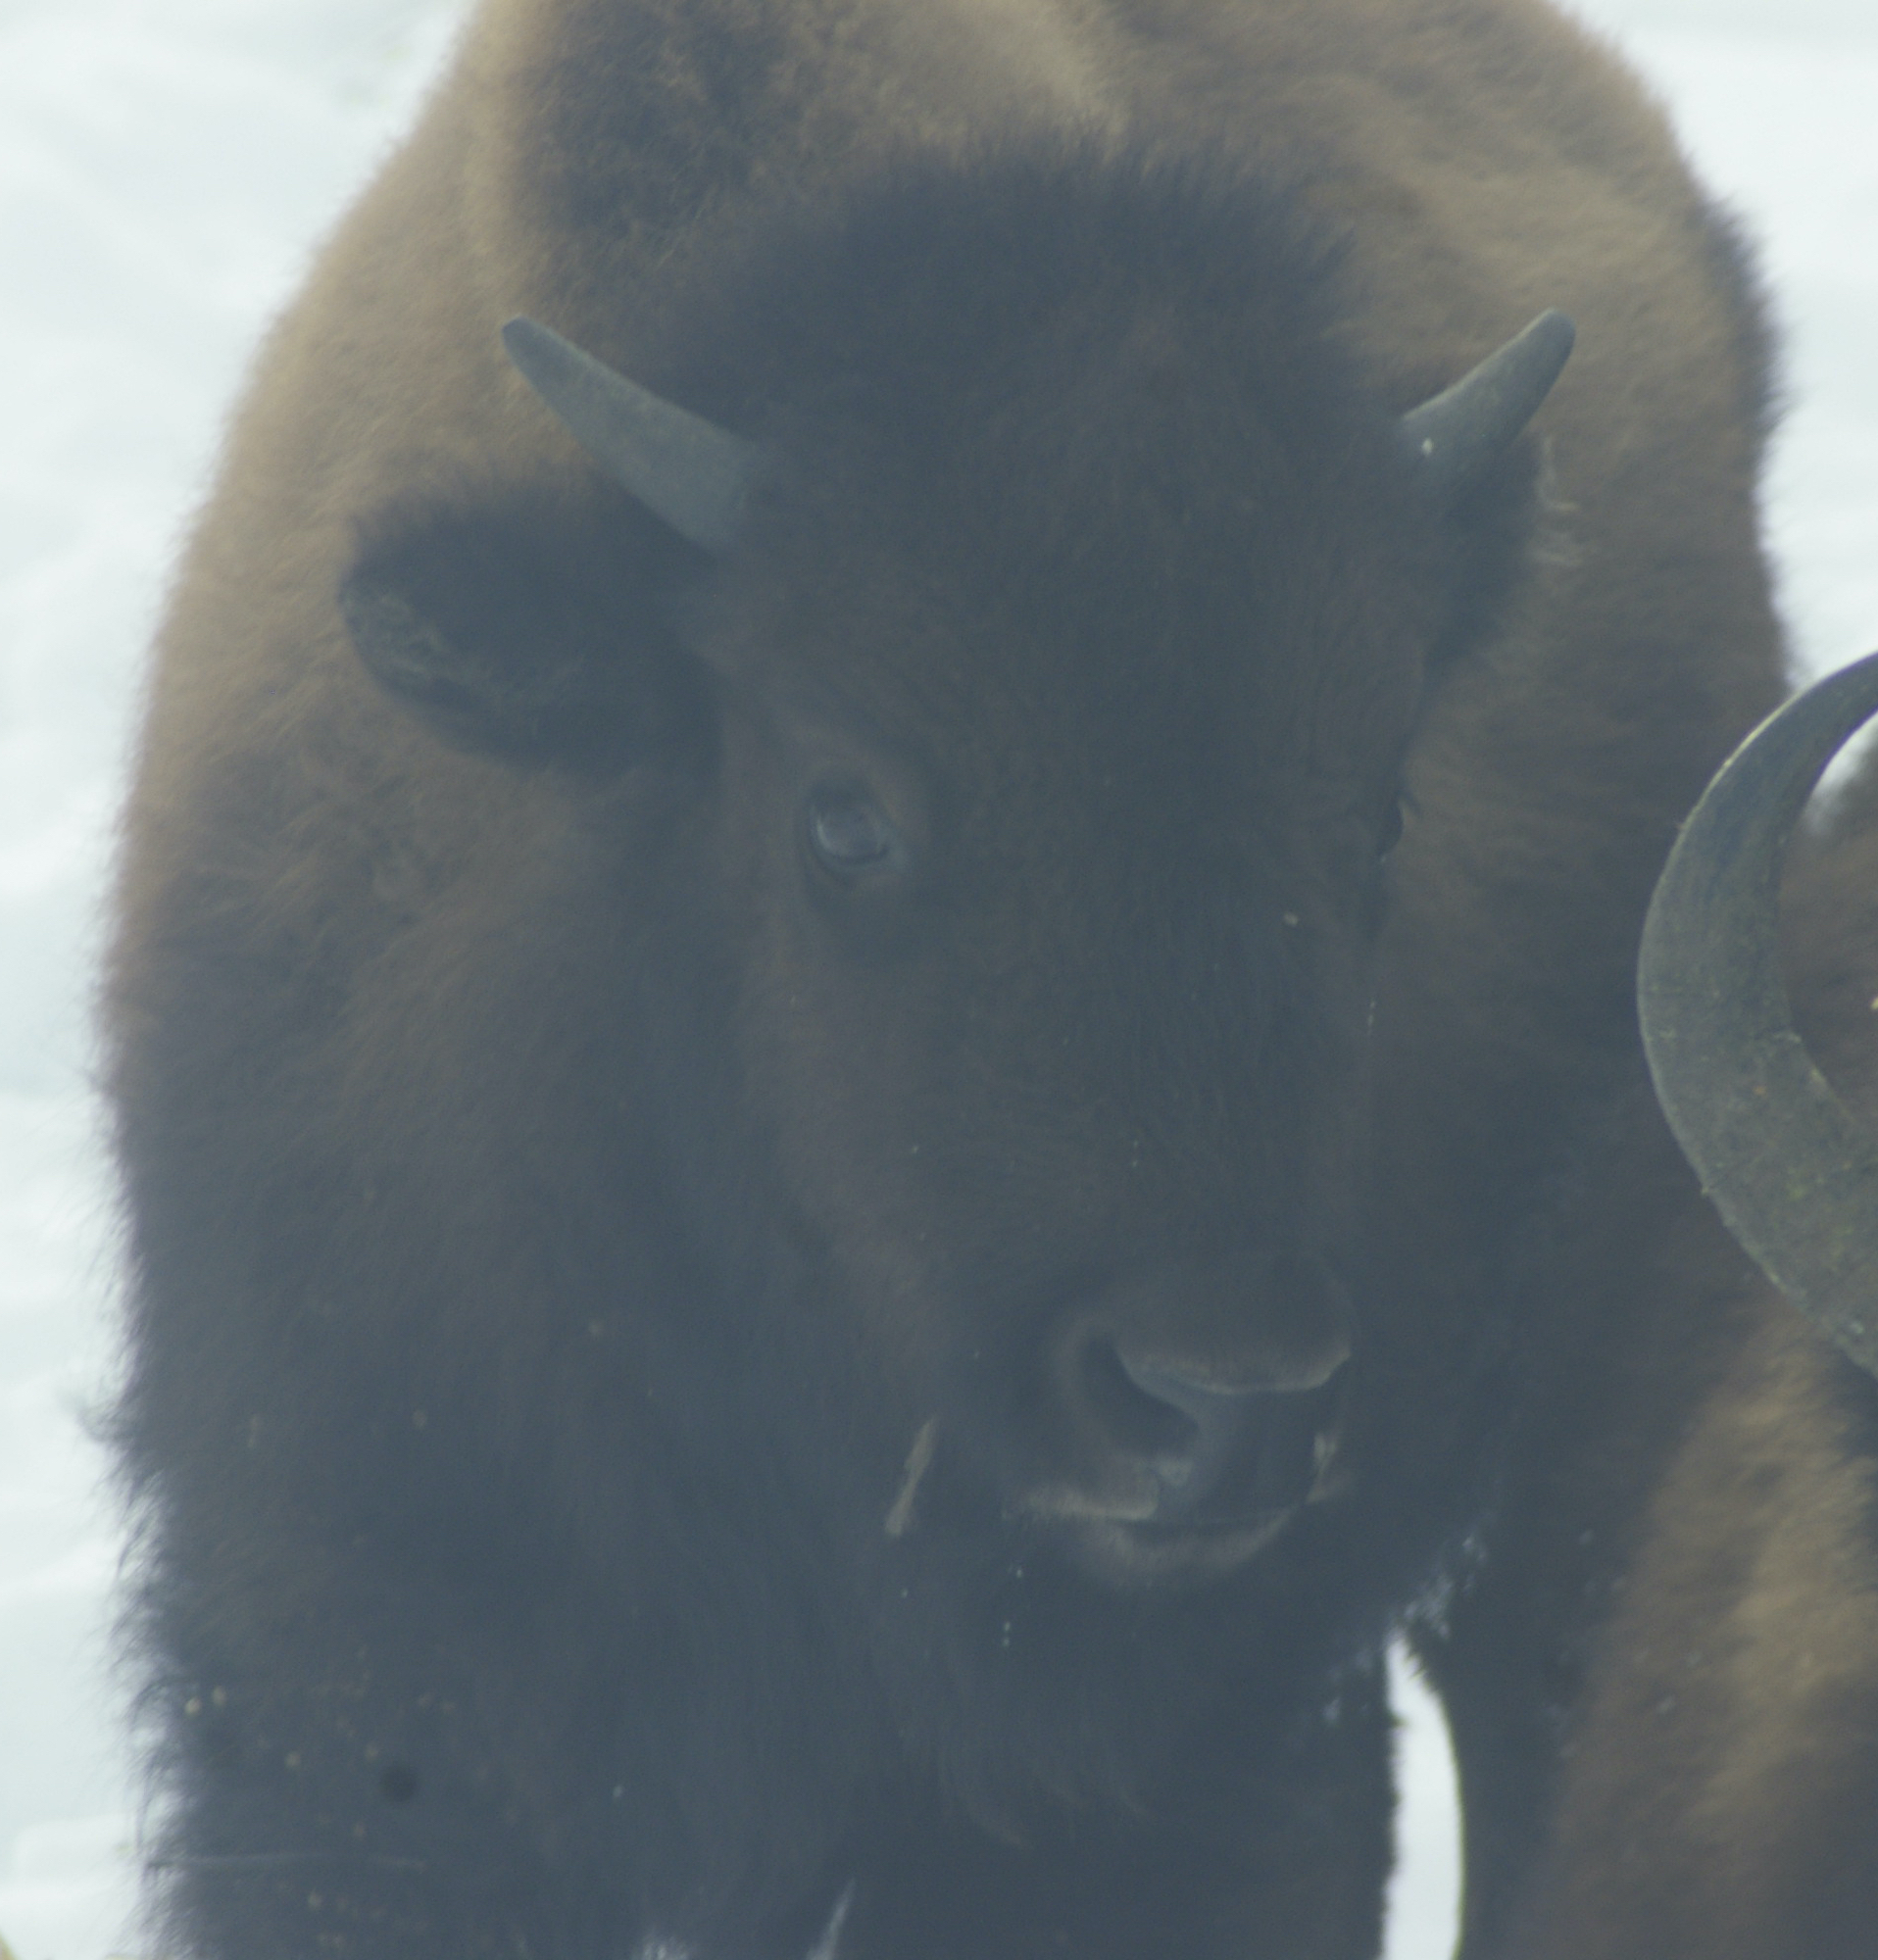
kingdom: Animalia
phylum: Chordata
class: Mammalia
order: Artiodactyla
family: Bovidae
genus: Bison
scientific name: Bison bison
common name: American bison
